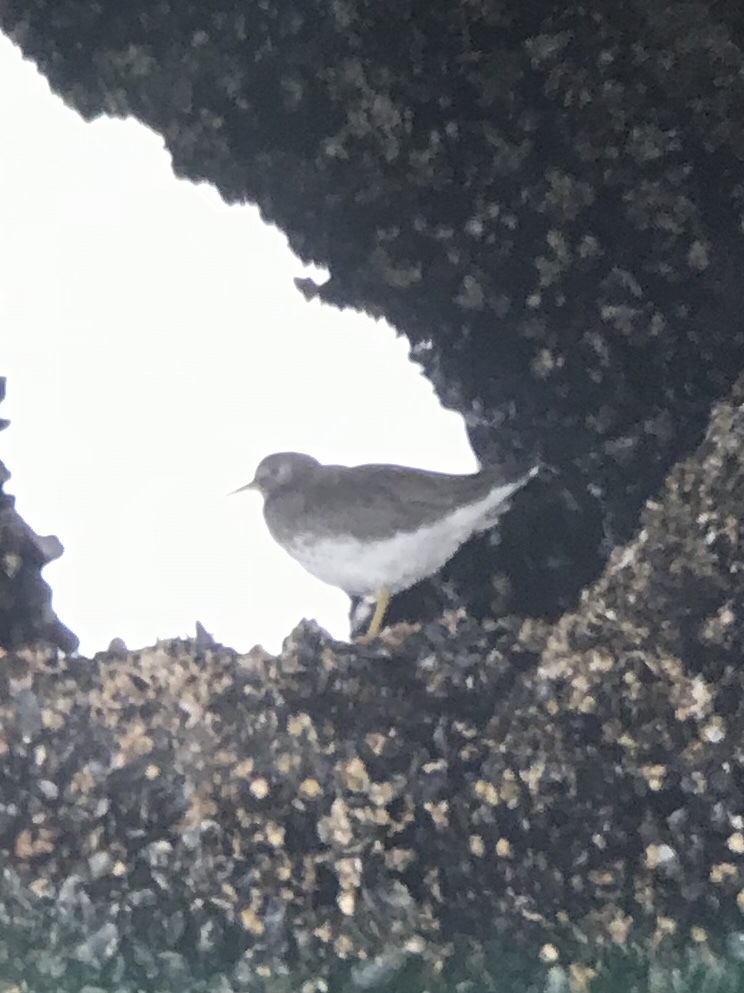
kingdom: Animalia
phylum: Chordata
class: Aves
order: Charadriiformes
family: Scolopacidae
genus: Calidris
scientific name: Calidris virgata
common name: Surfbird
